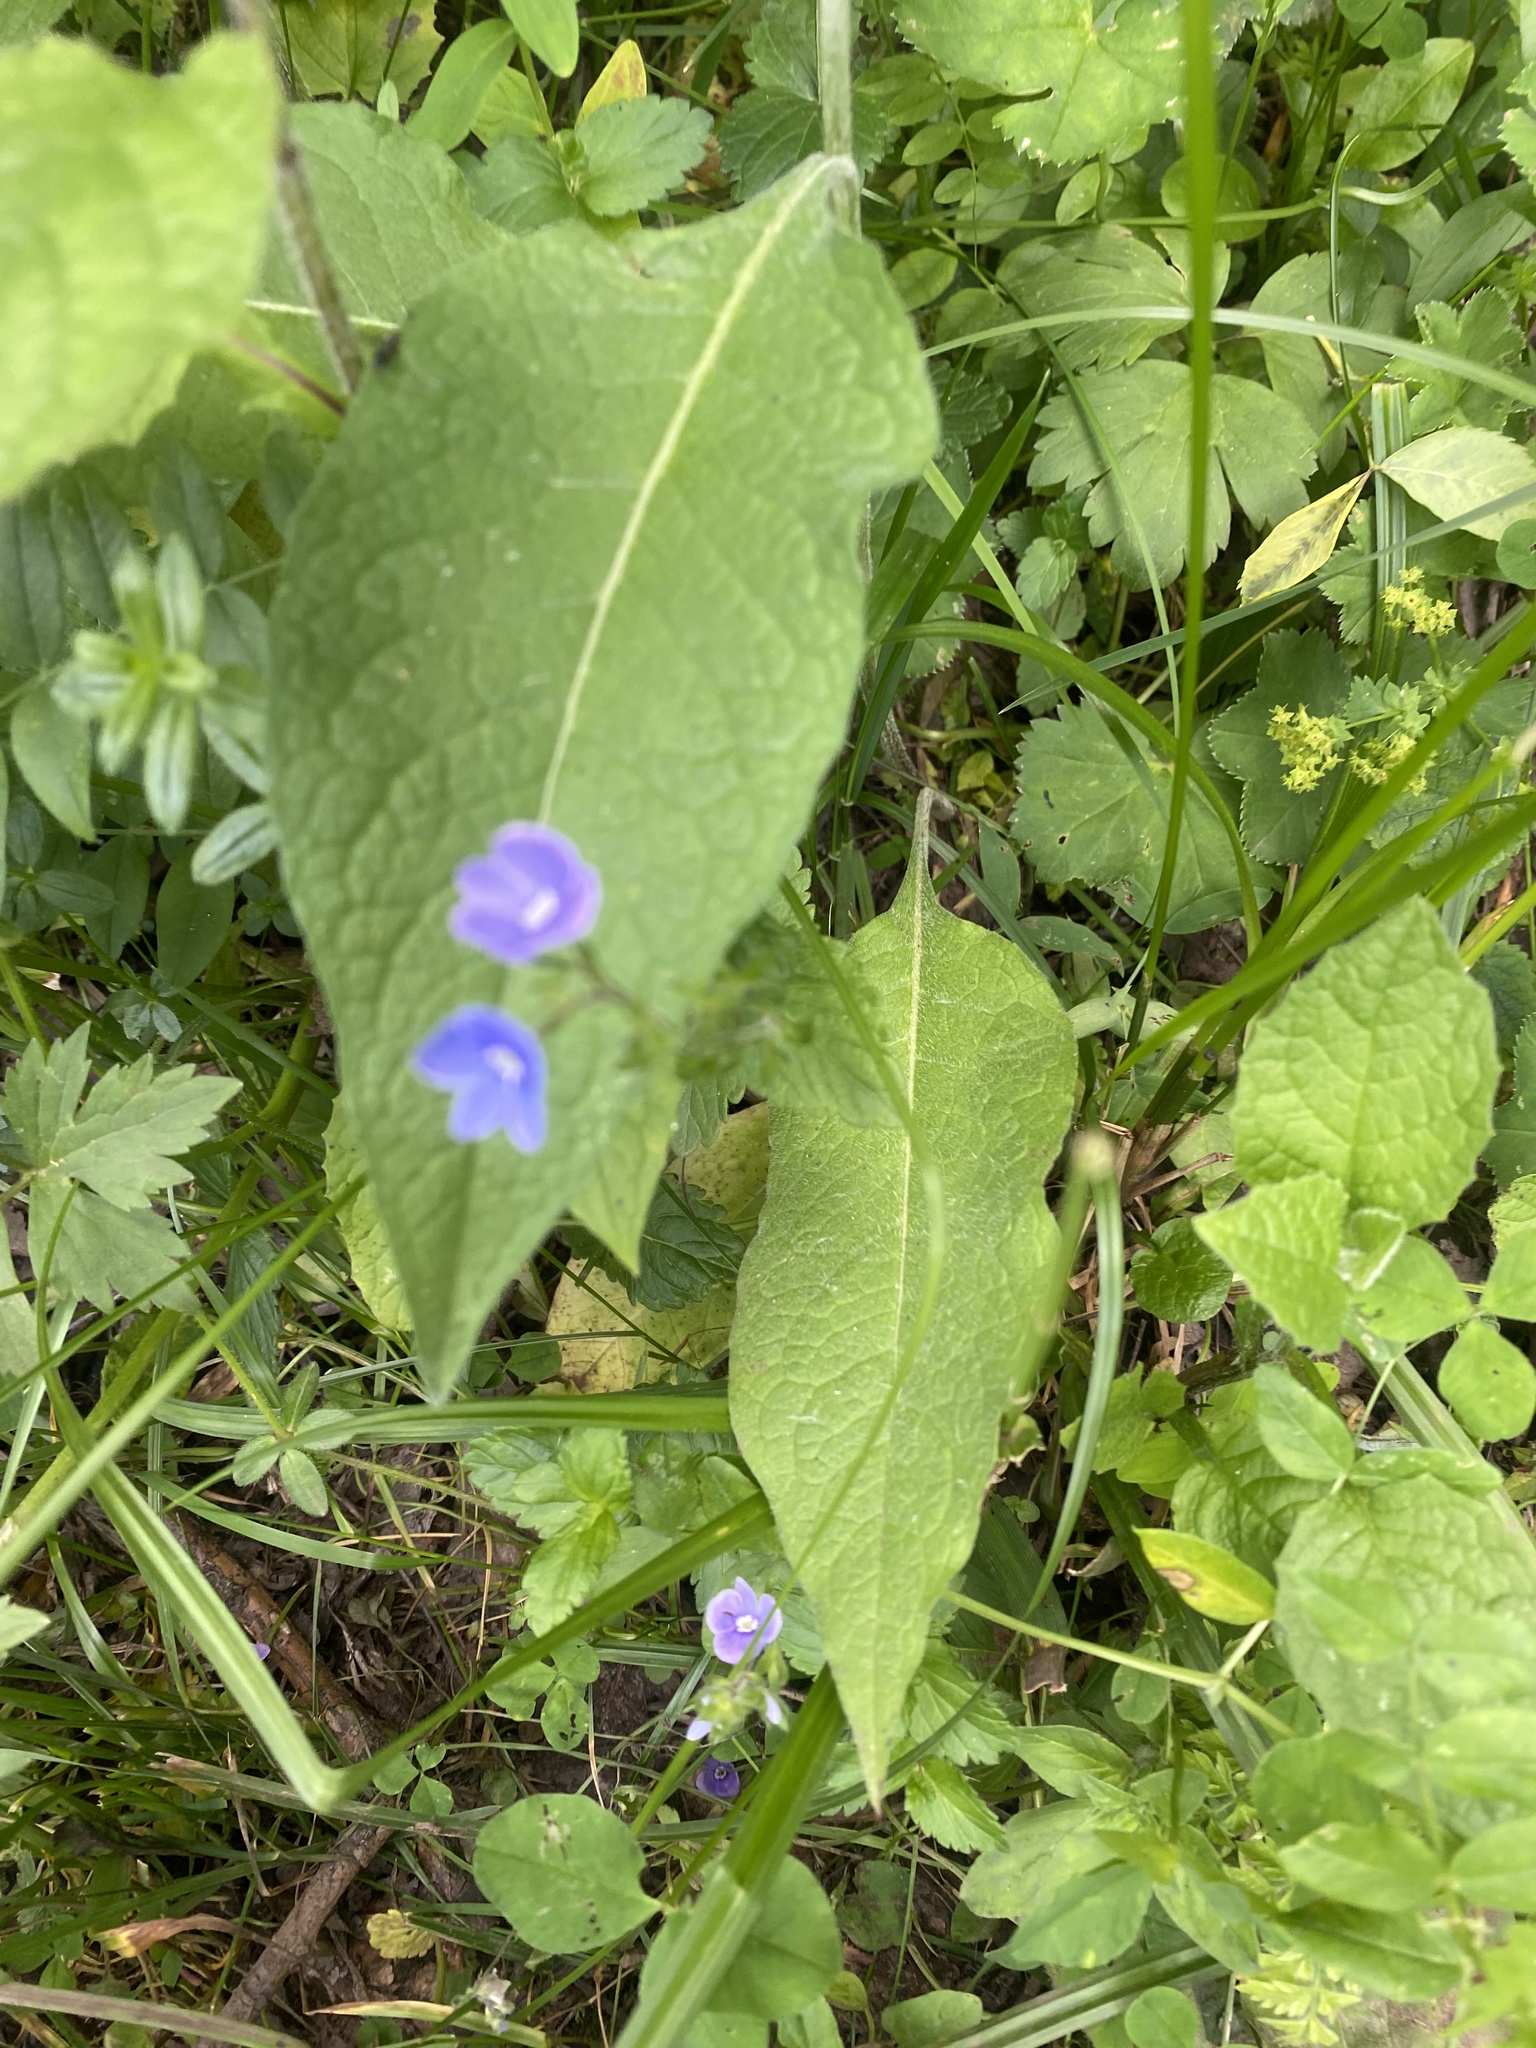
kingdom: Plantae
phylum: Tracheophyta
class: Magnoliopsida
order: Lamiales
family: Plantaginaceae
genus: Veronica
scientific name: Veronica chamaedrys
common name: Germander speedwell
